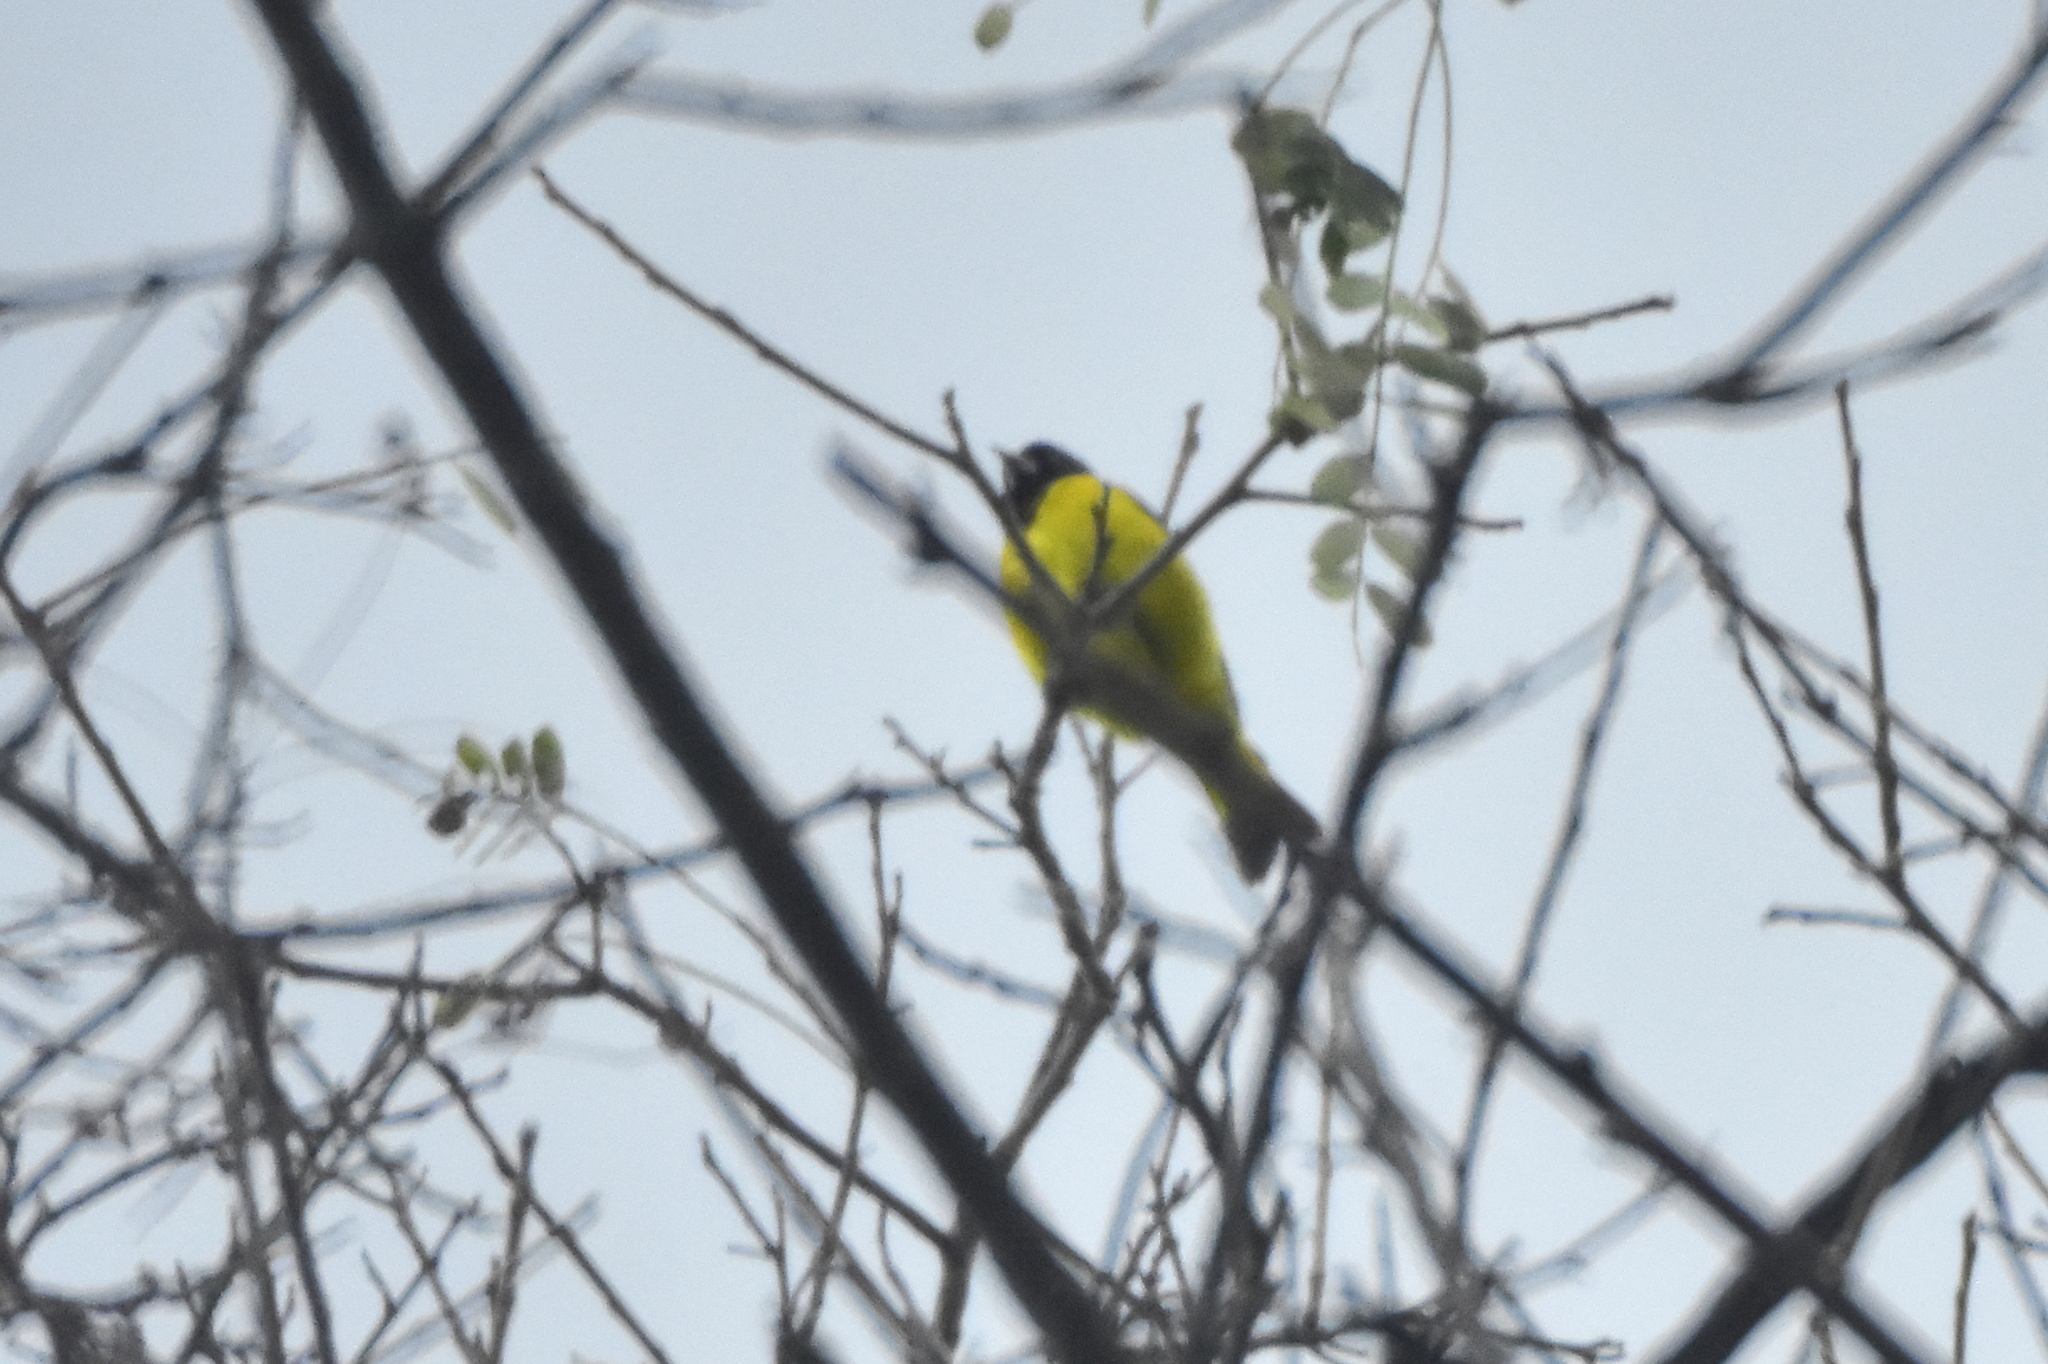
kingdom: Animalia
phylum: Chordata
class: Aves
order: Passeriformes
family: Fringillidae
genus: Spinus
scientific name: Spinus notatus
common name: Black-headed siskin
